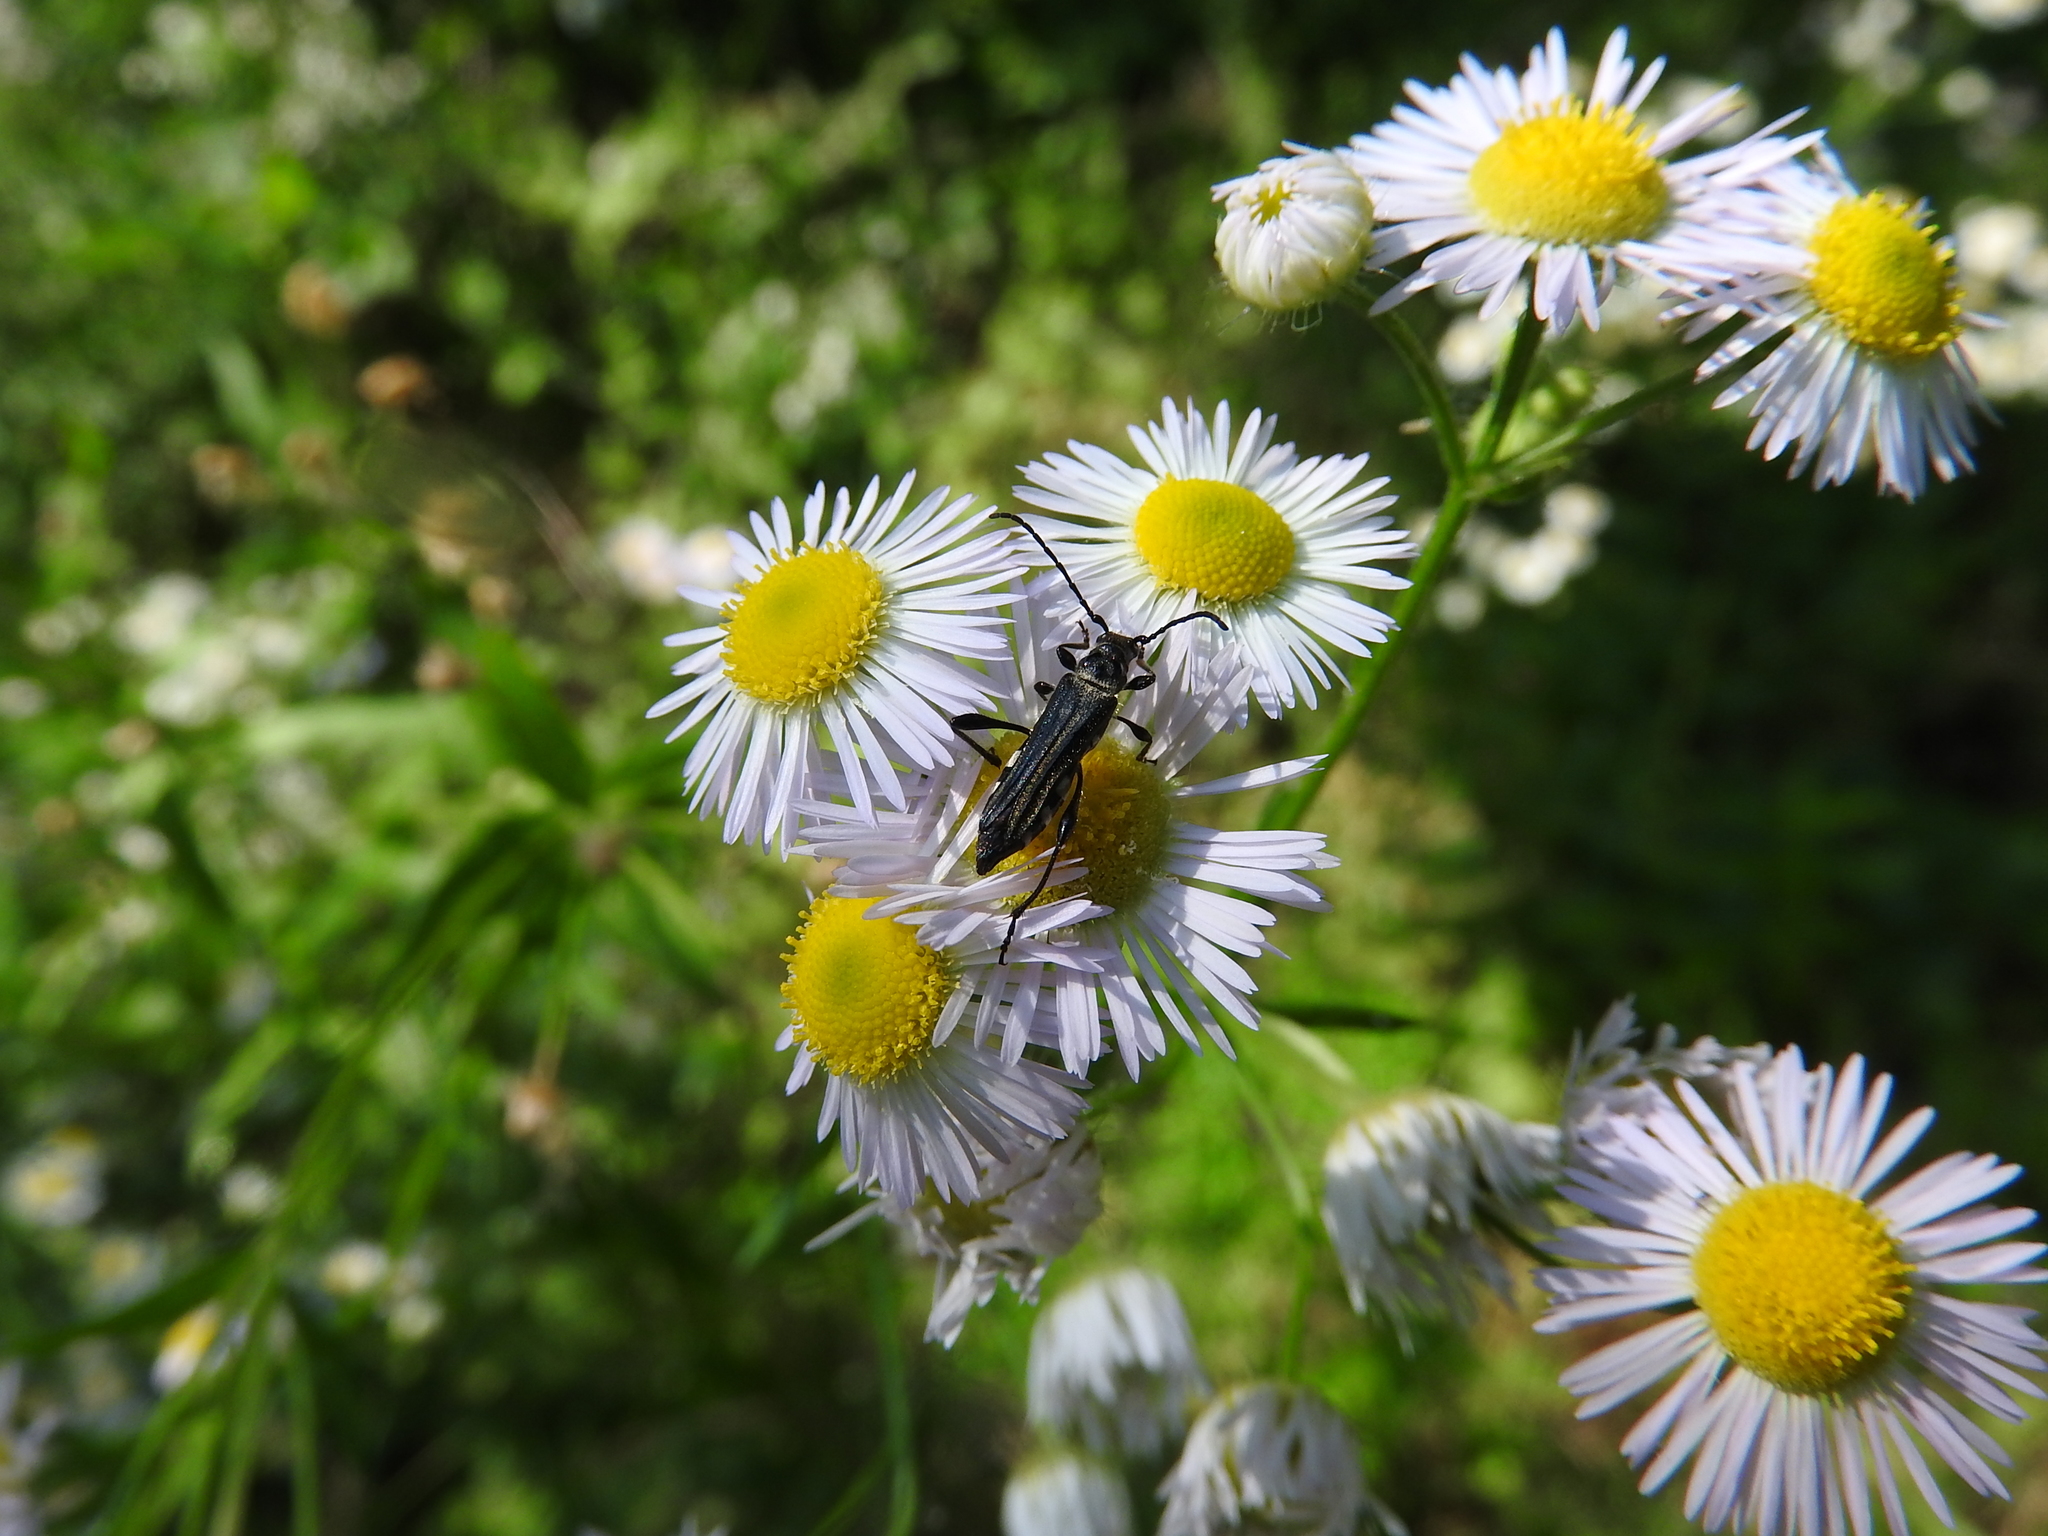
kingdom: Animalia
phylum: Arthropoda
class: Insecta
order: Coleoptera
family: Cerambycidae
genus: Stenopterus
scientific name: Stenopterus ater
